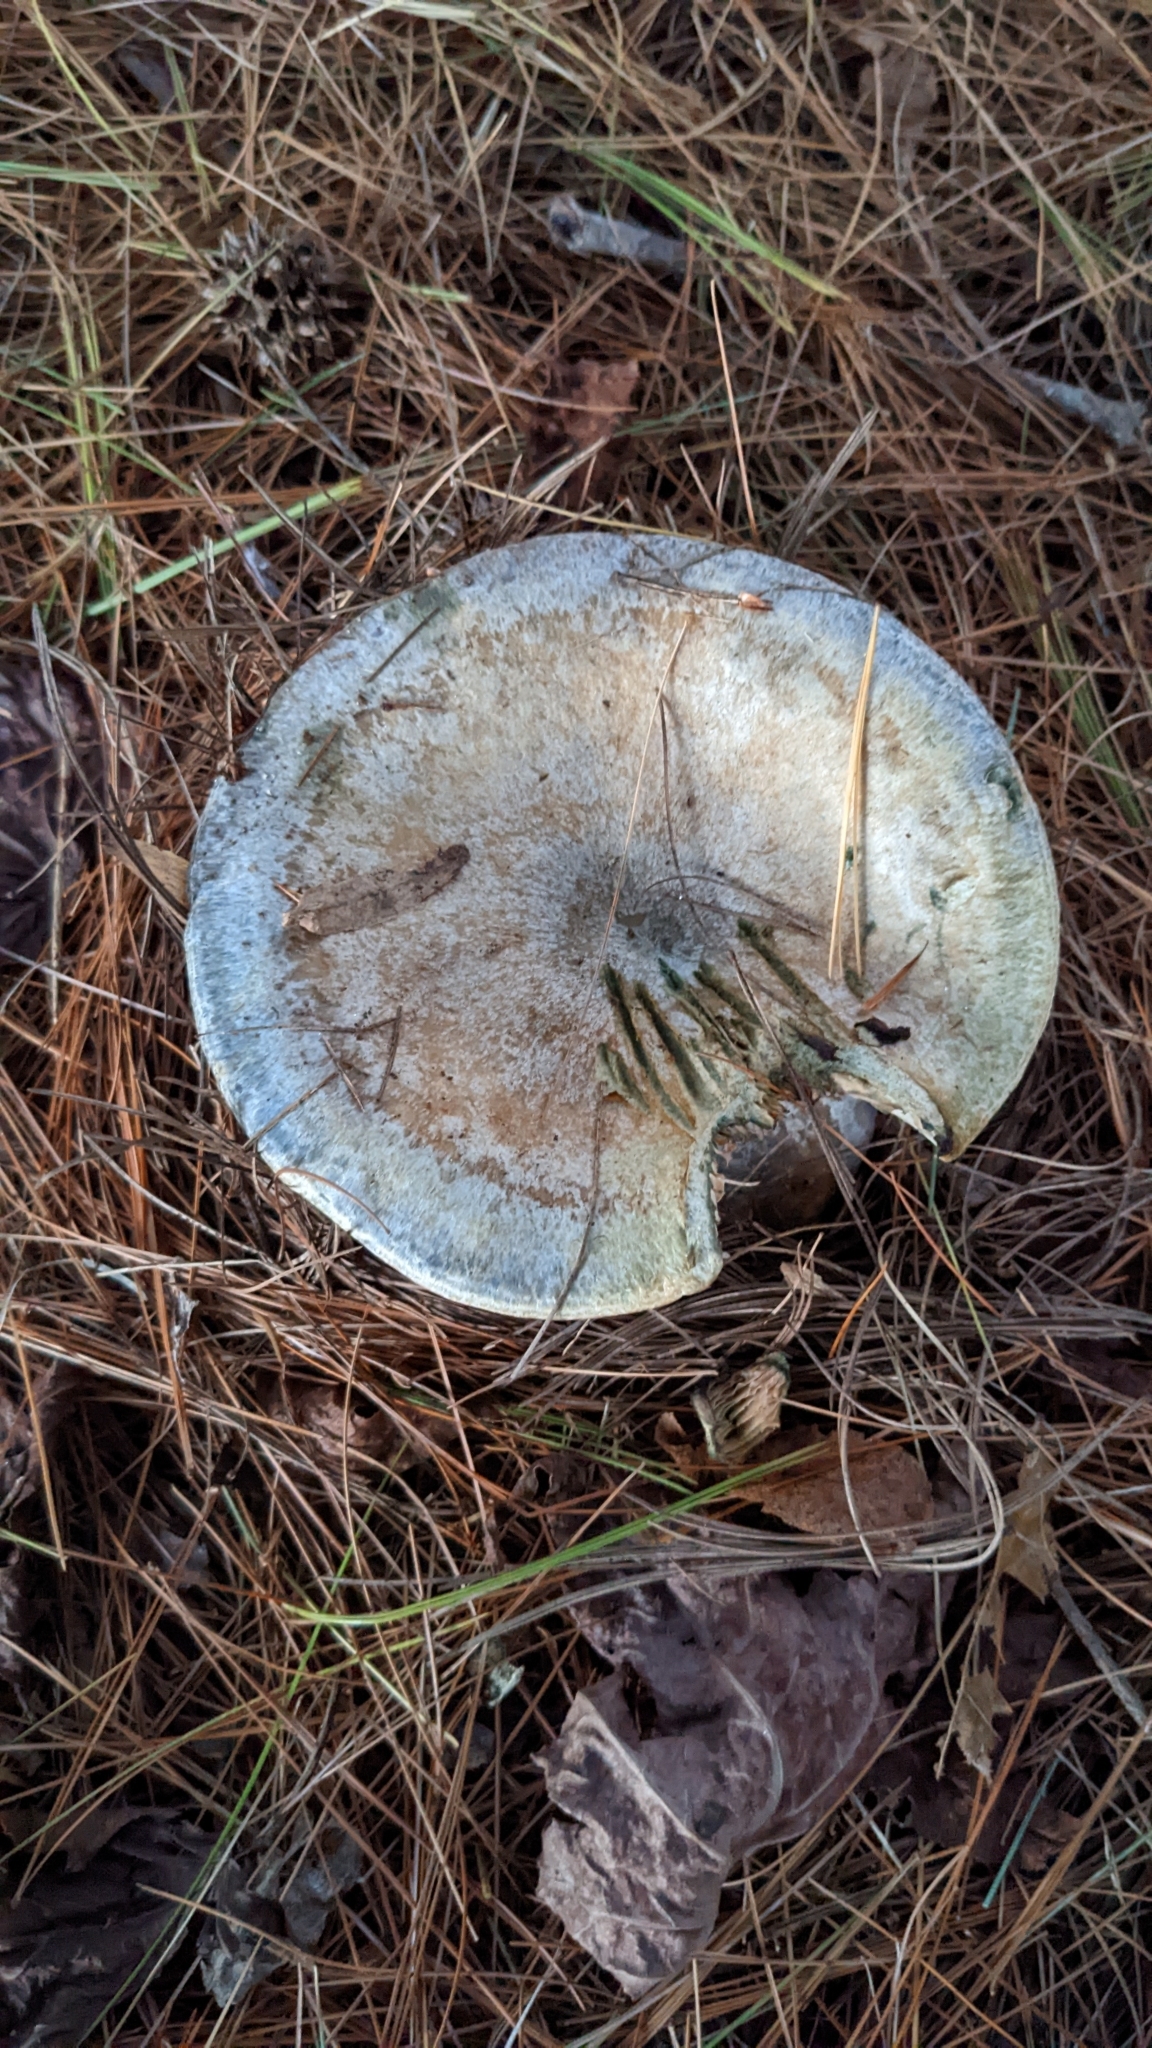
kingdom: Fungi
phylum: Basidiomycota
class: Agaricomycetes
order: Russulales
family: Russulaceae
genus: Lactarius
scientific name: Lactarius chelidonium
